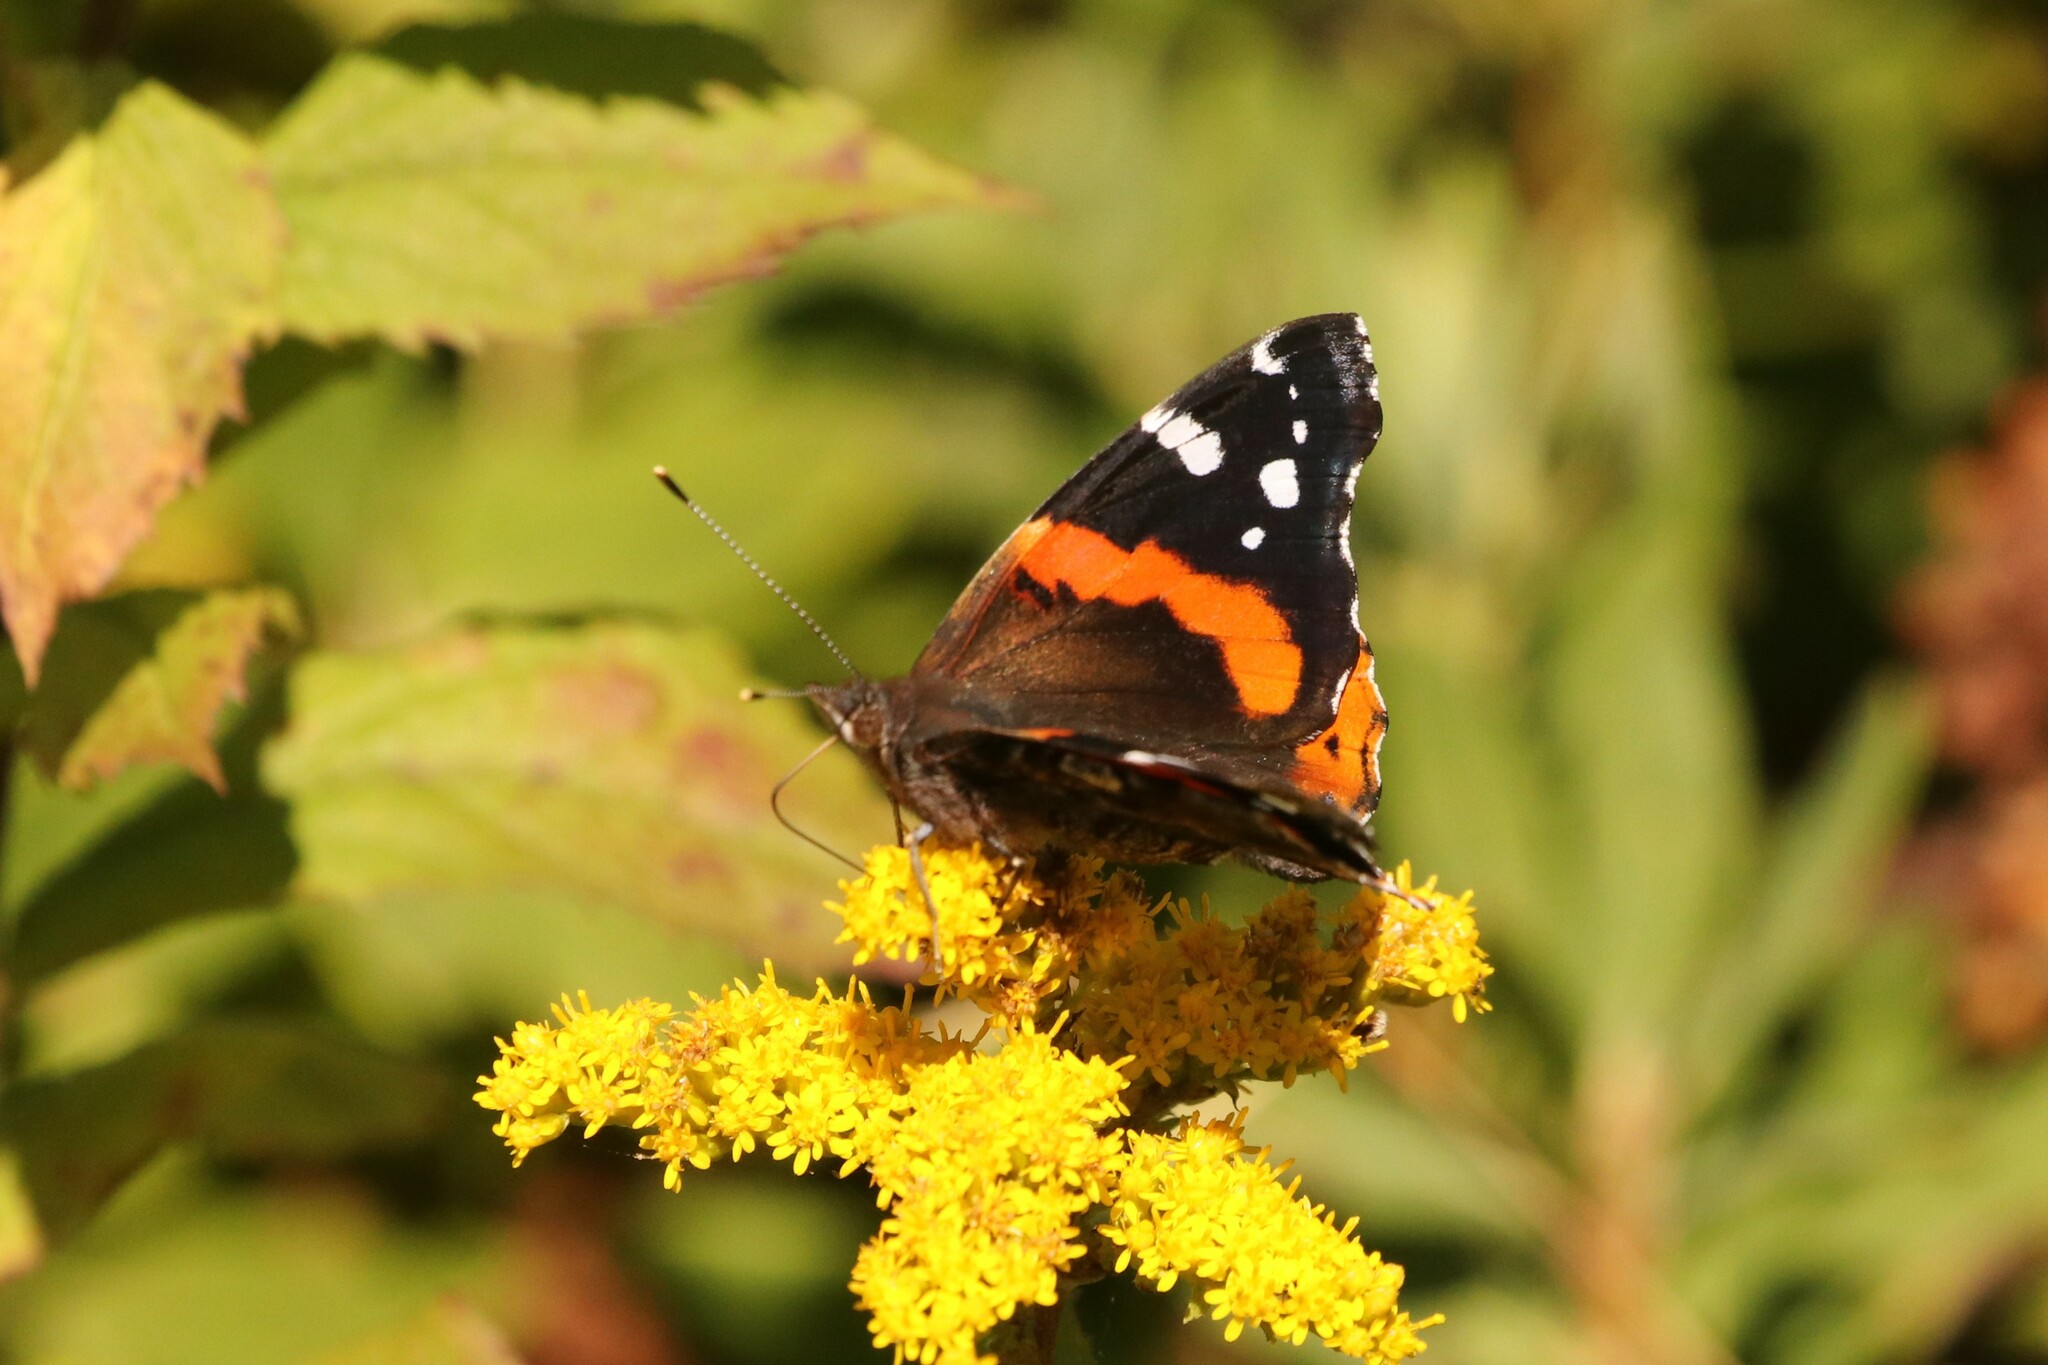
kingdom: Animalia
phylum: Arthropoda
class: Insecta
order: Lepidoptera
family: Nymphalidae
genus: Vanessa
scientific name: Vanessa atalanta
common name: Red admiral
